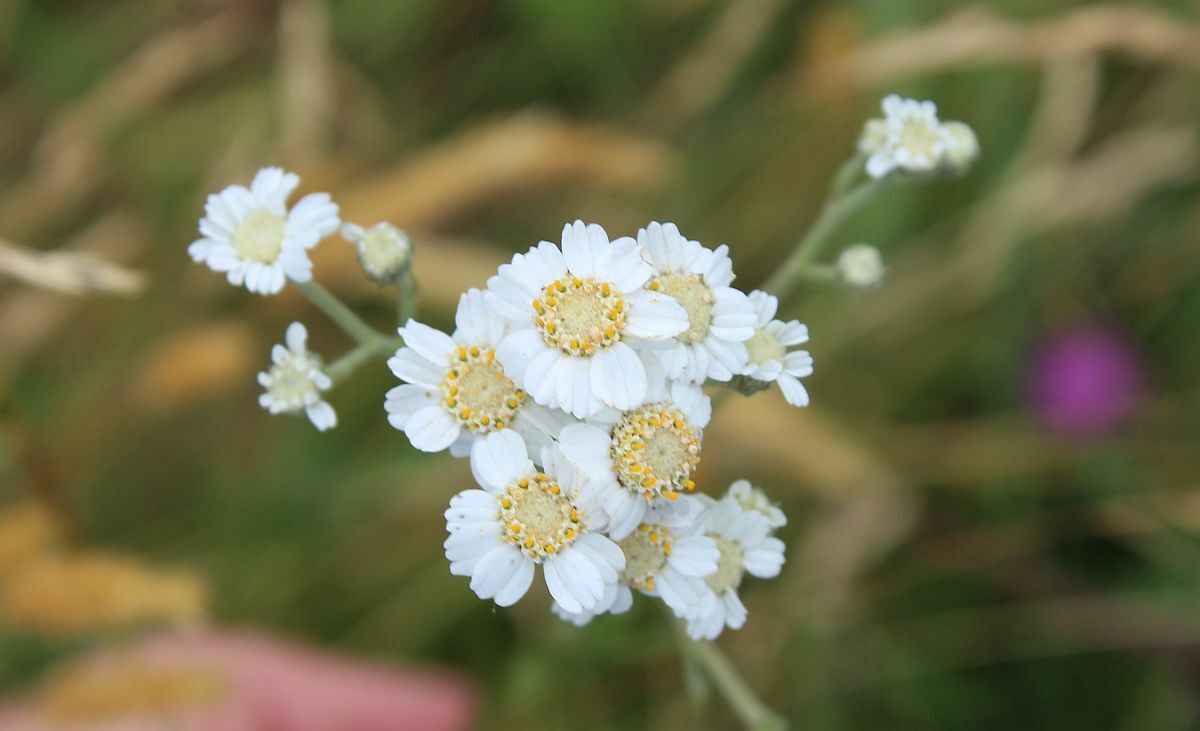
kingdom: Plantae
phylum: Tracheophyta
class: Magnoliopsida
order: Asterales
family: Asteraceae
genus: Achillea
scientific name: Achillea ptarmica
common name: Sneezeweed
